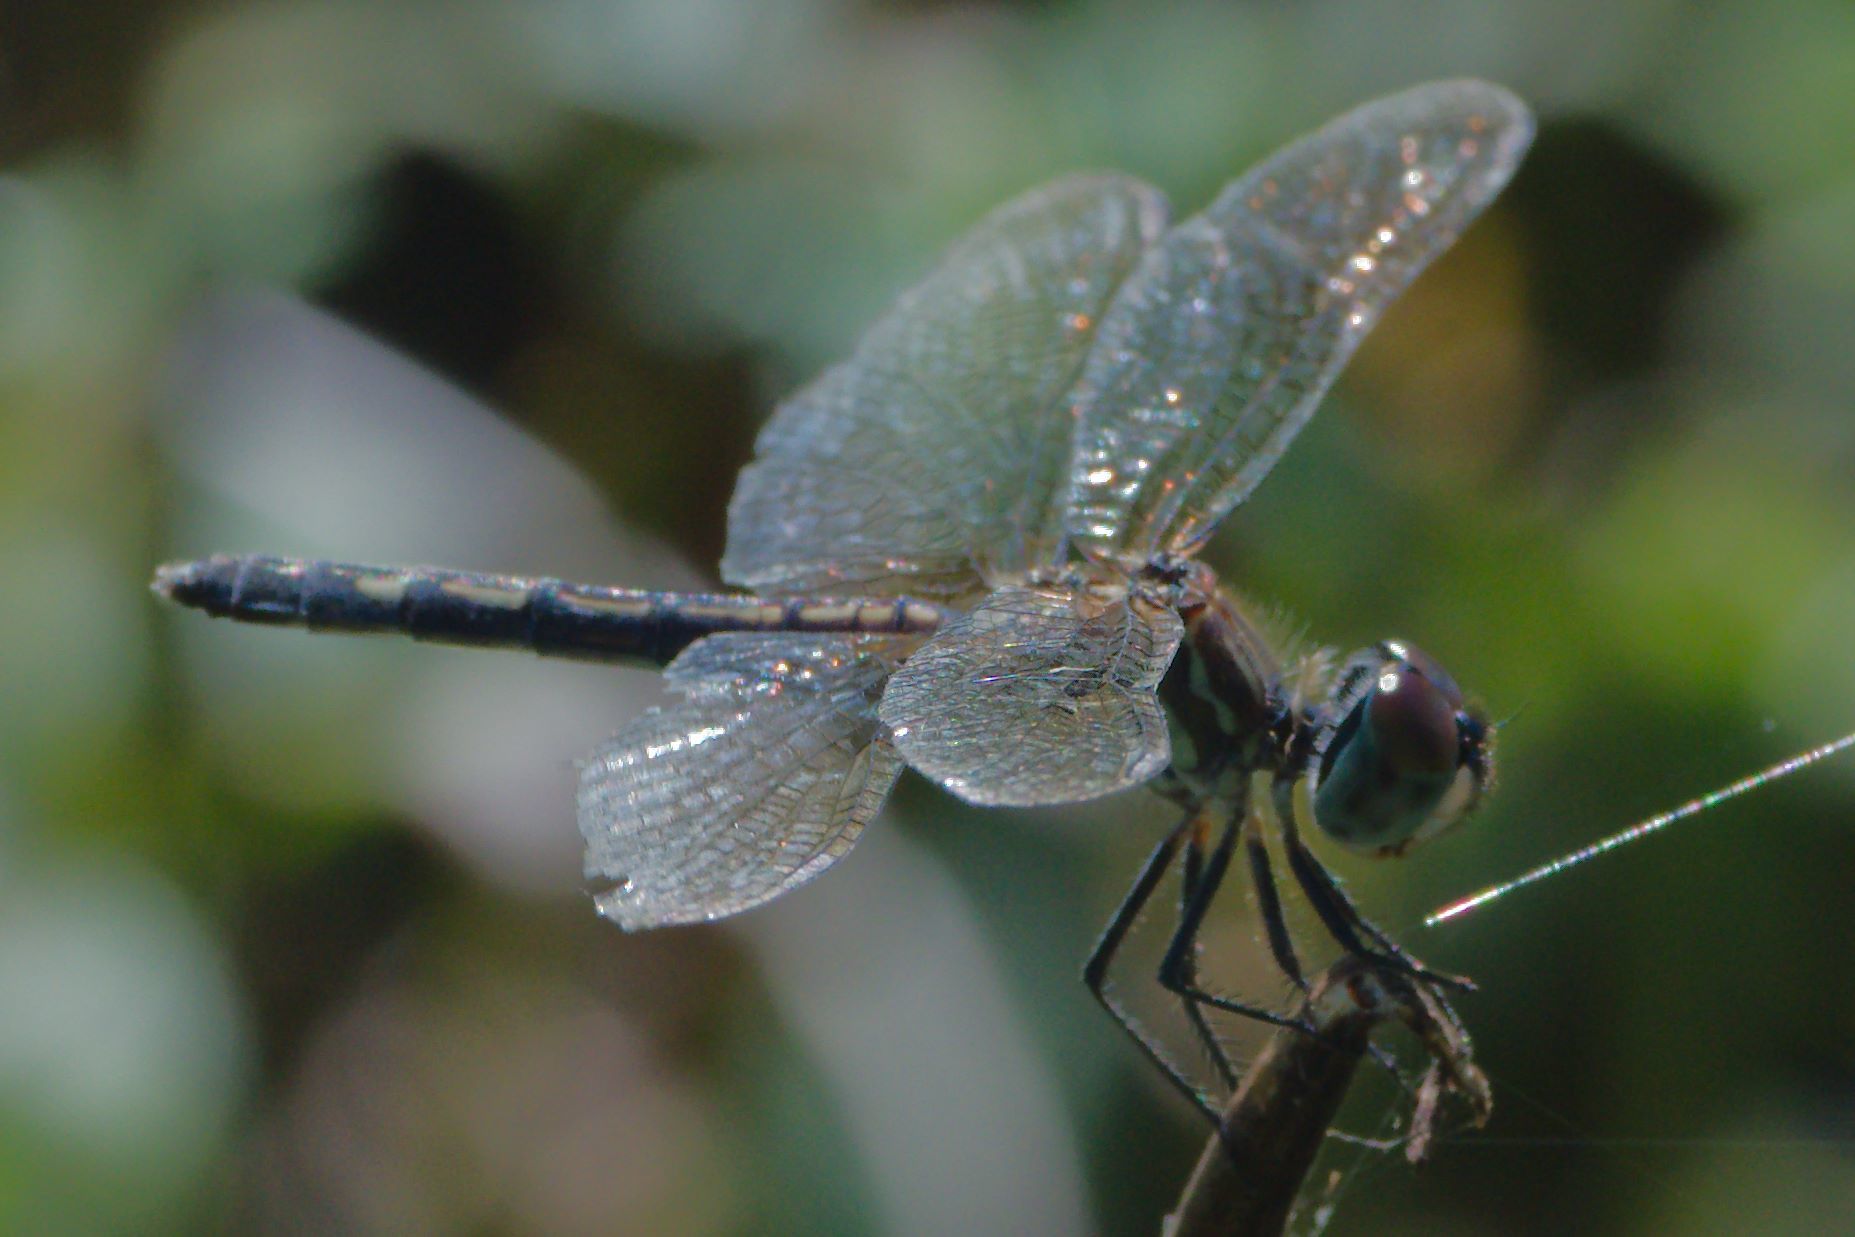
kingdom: Animalia
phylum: Arthropoda
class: Insecta
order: Odonata
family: Libellulidae
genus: Pachydiplax
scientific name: Pachydiplax longipennis
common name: Blue dasher
